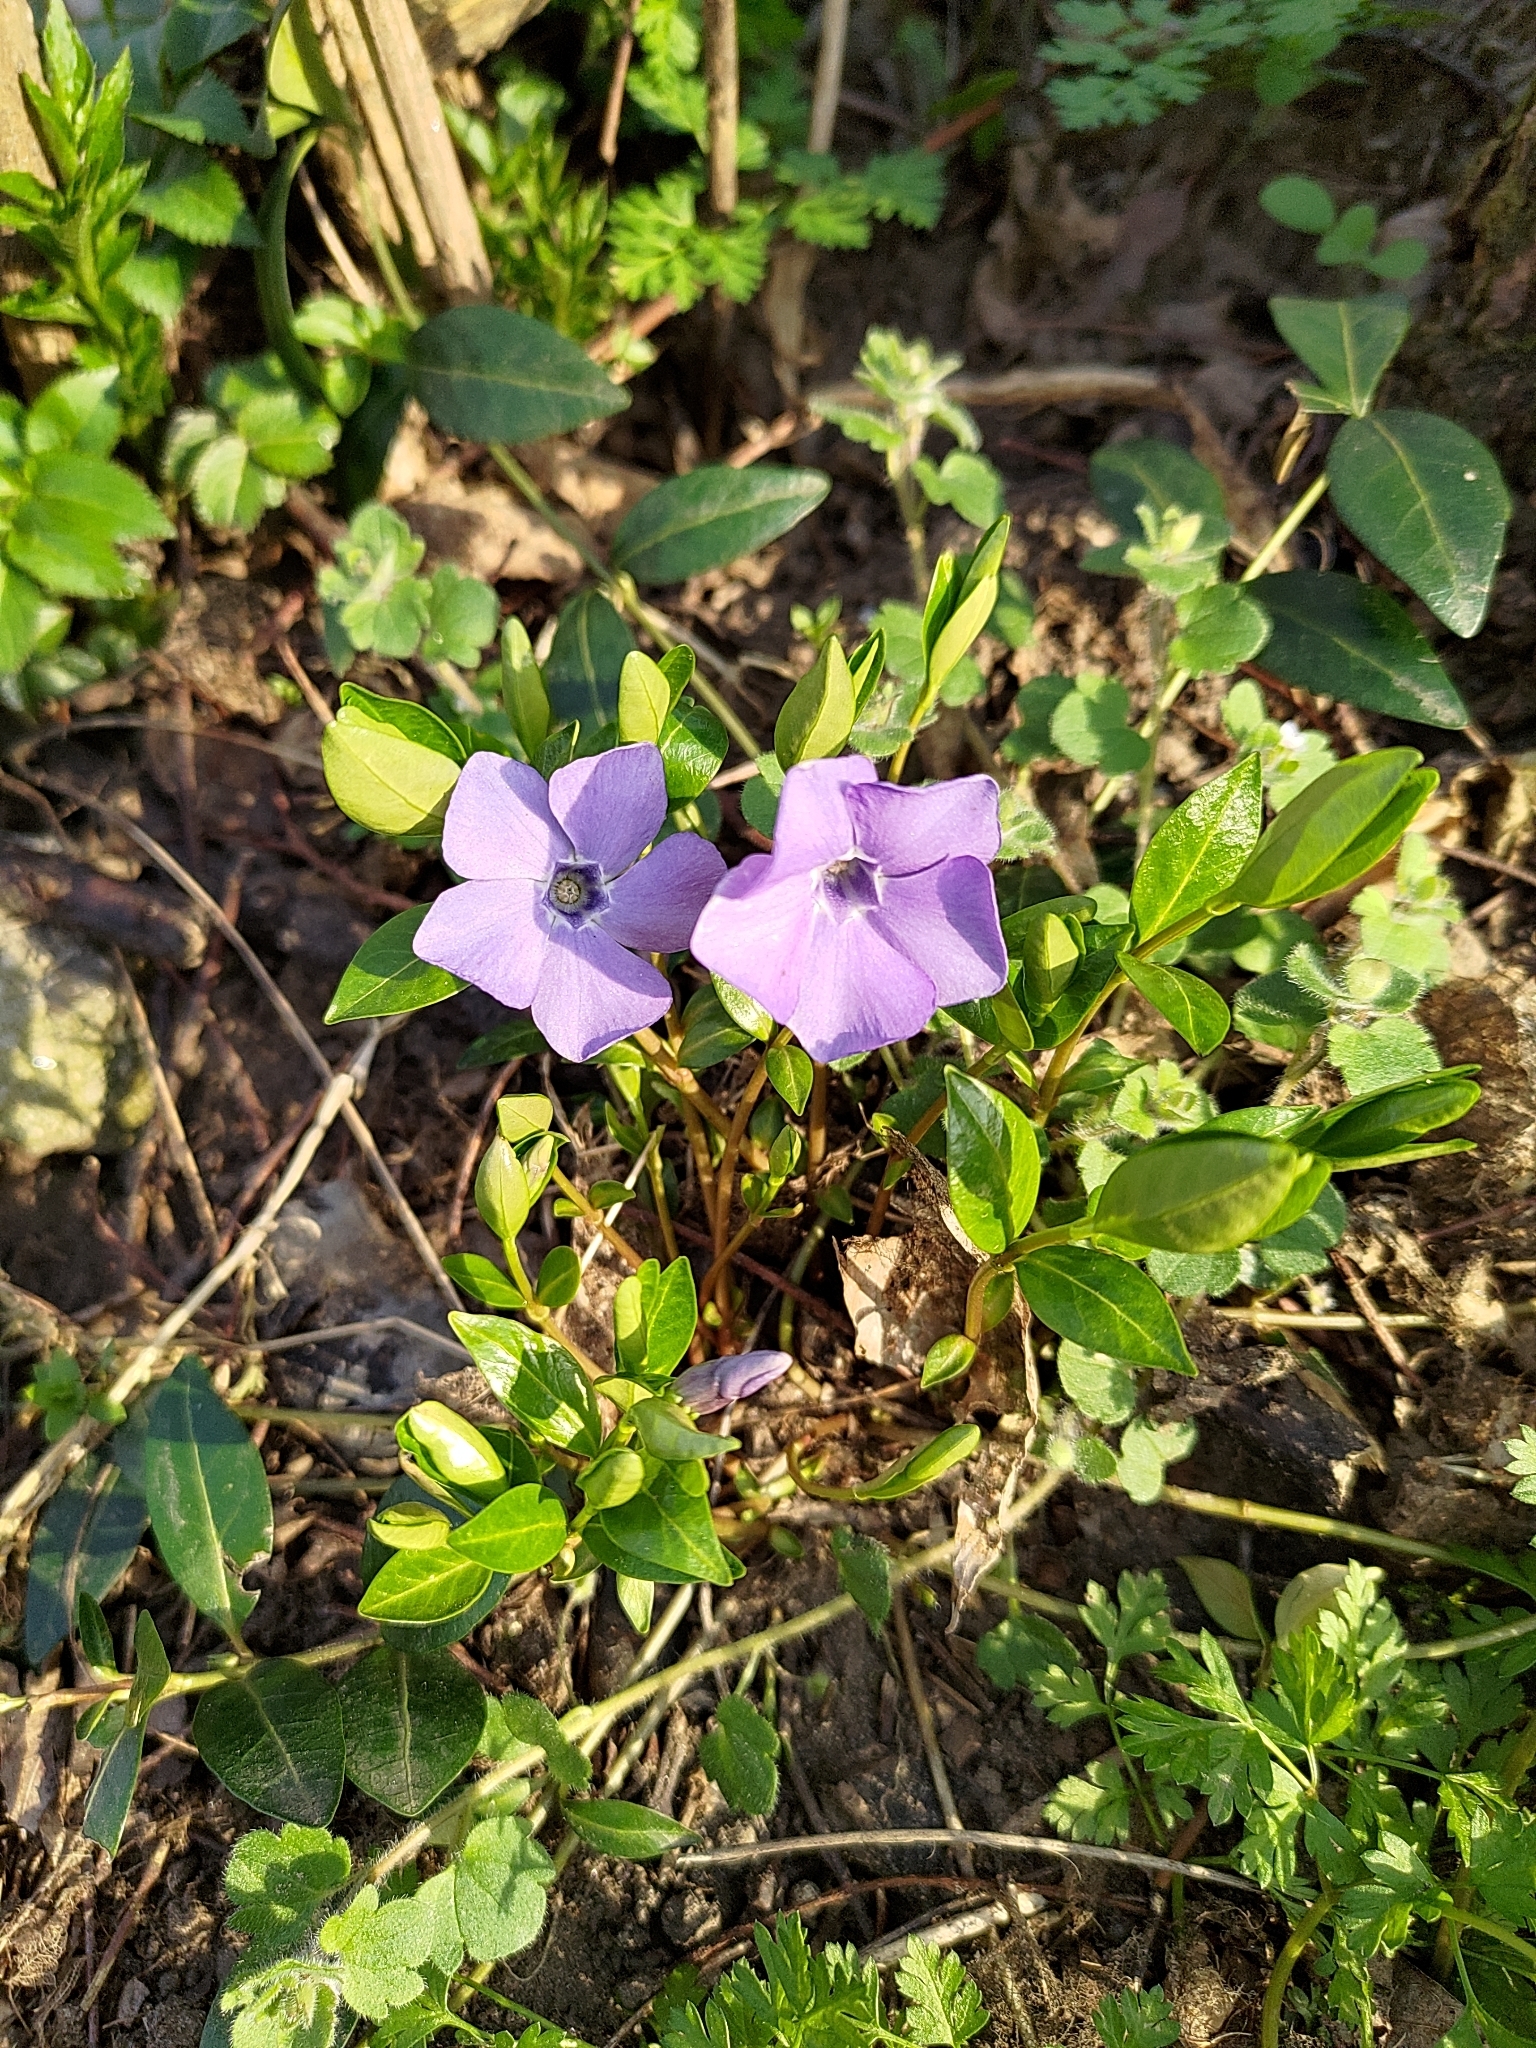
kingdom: Plantae
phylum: Tracheophyta
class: Magnoliopsida
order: Gentianales
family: Apocynaceae
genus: Vinca
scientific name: Vinca minor
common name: Lesser periwinkle
